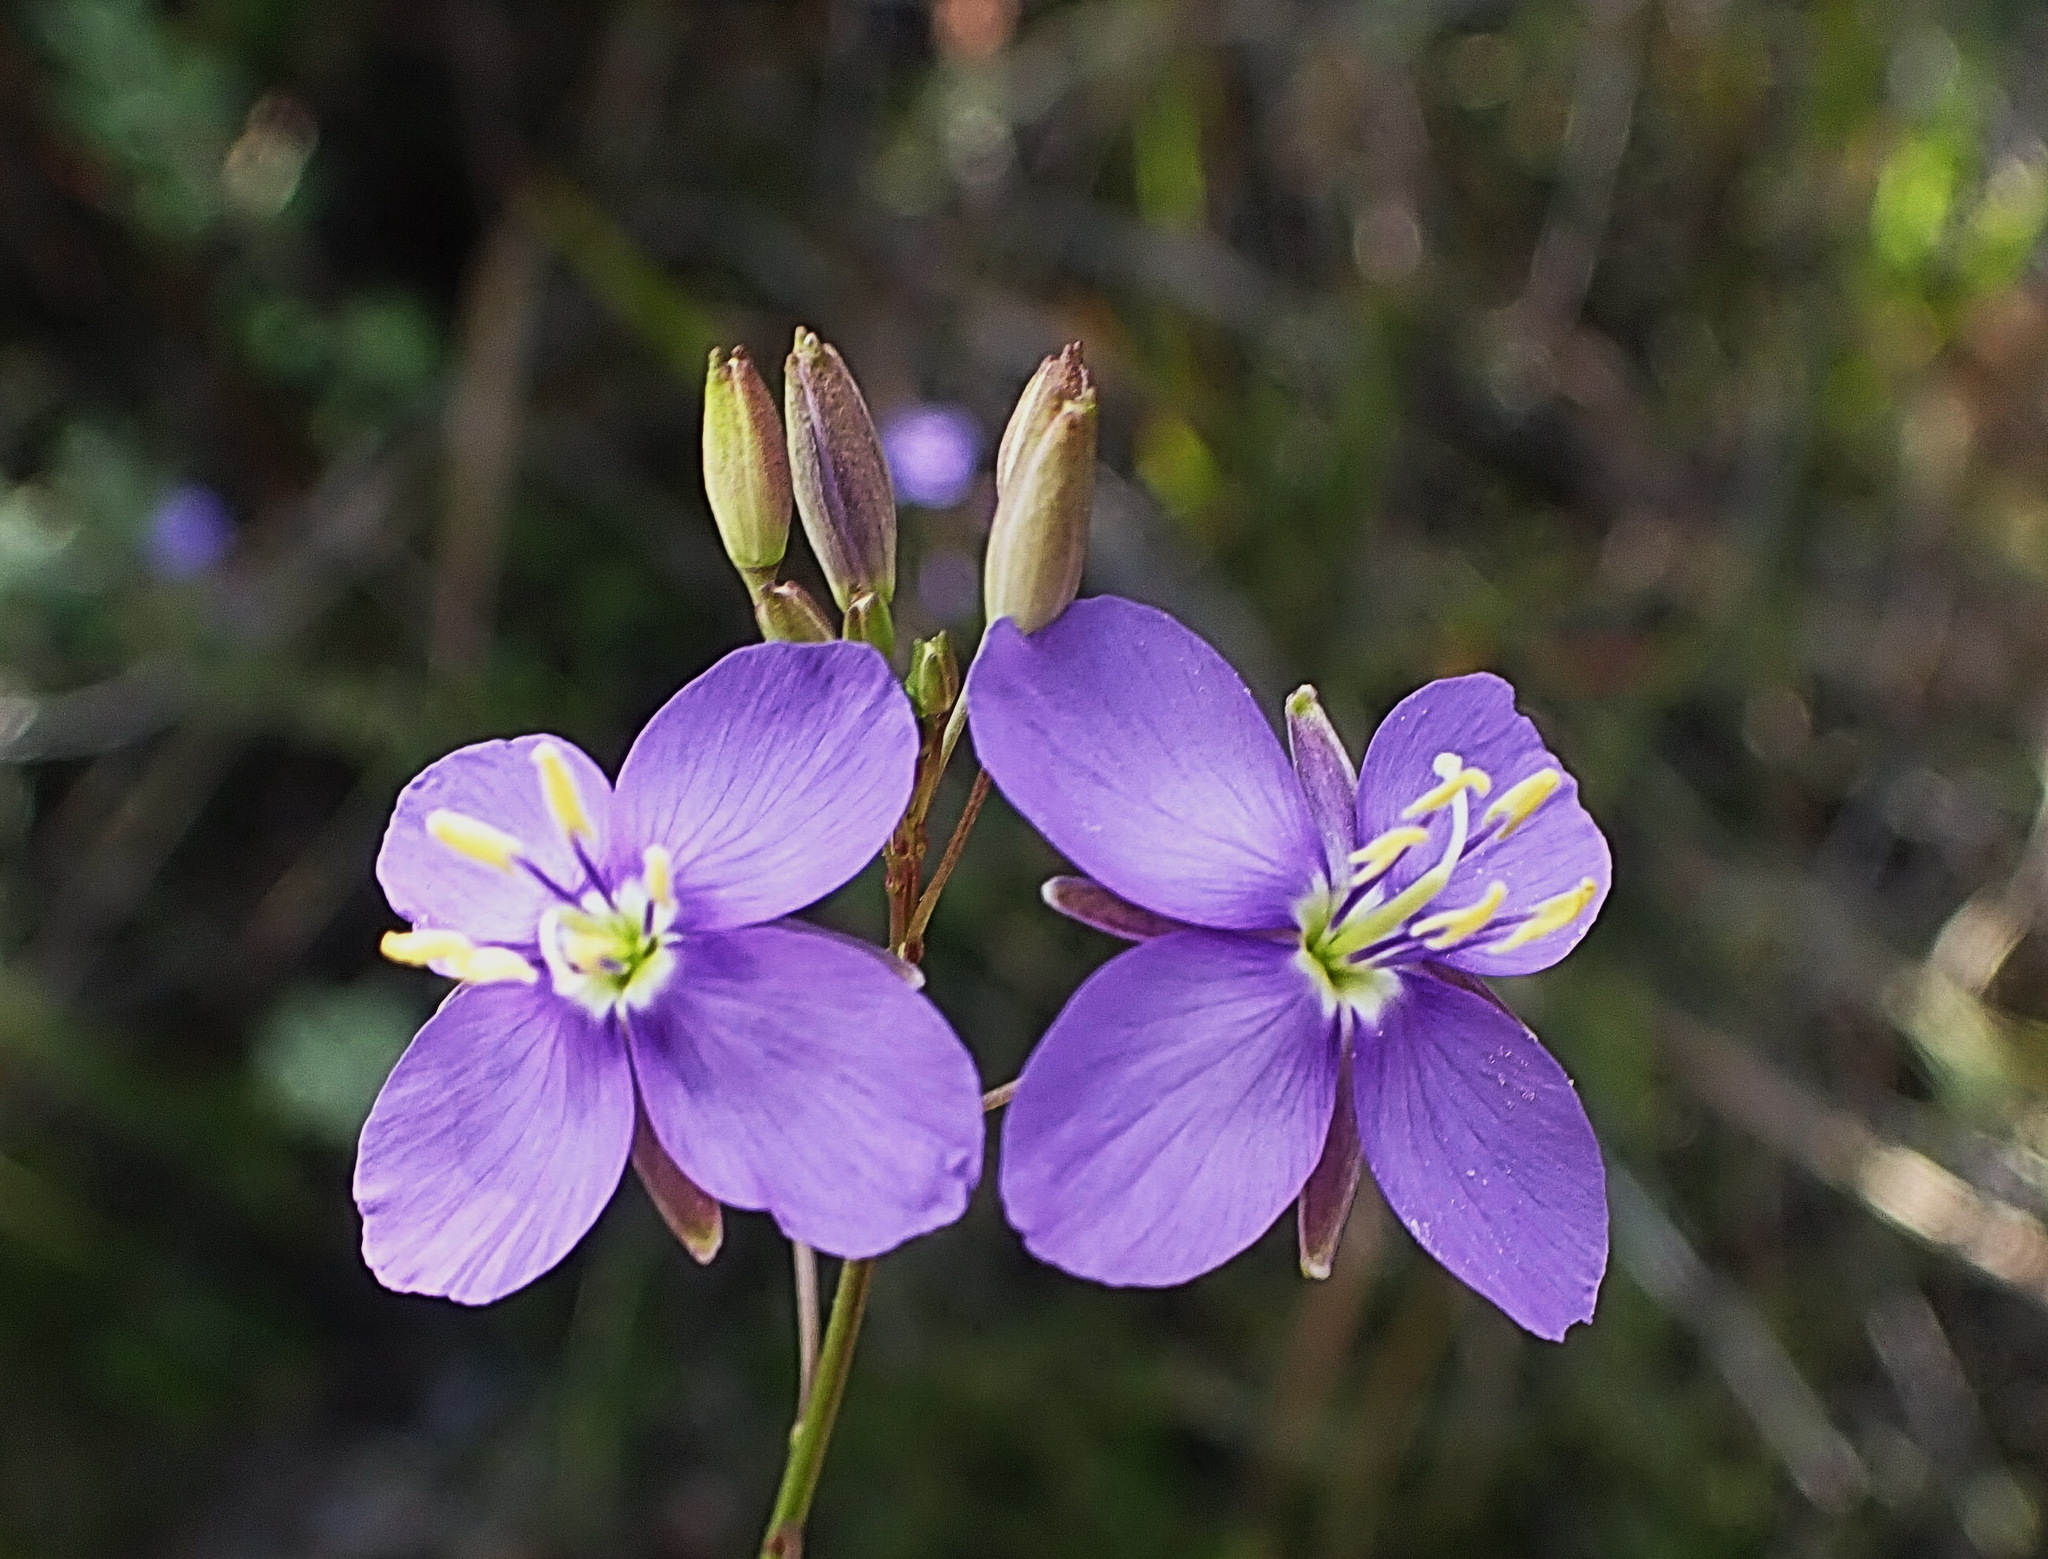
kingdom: Plantae
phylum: Tracheophyta
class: Magnoliopsida
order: Brassicales
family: Brassicaceae
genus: Heliophila
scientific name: Heliophila subulata
